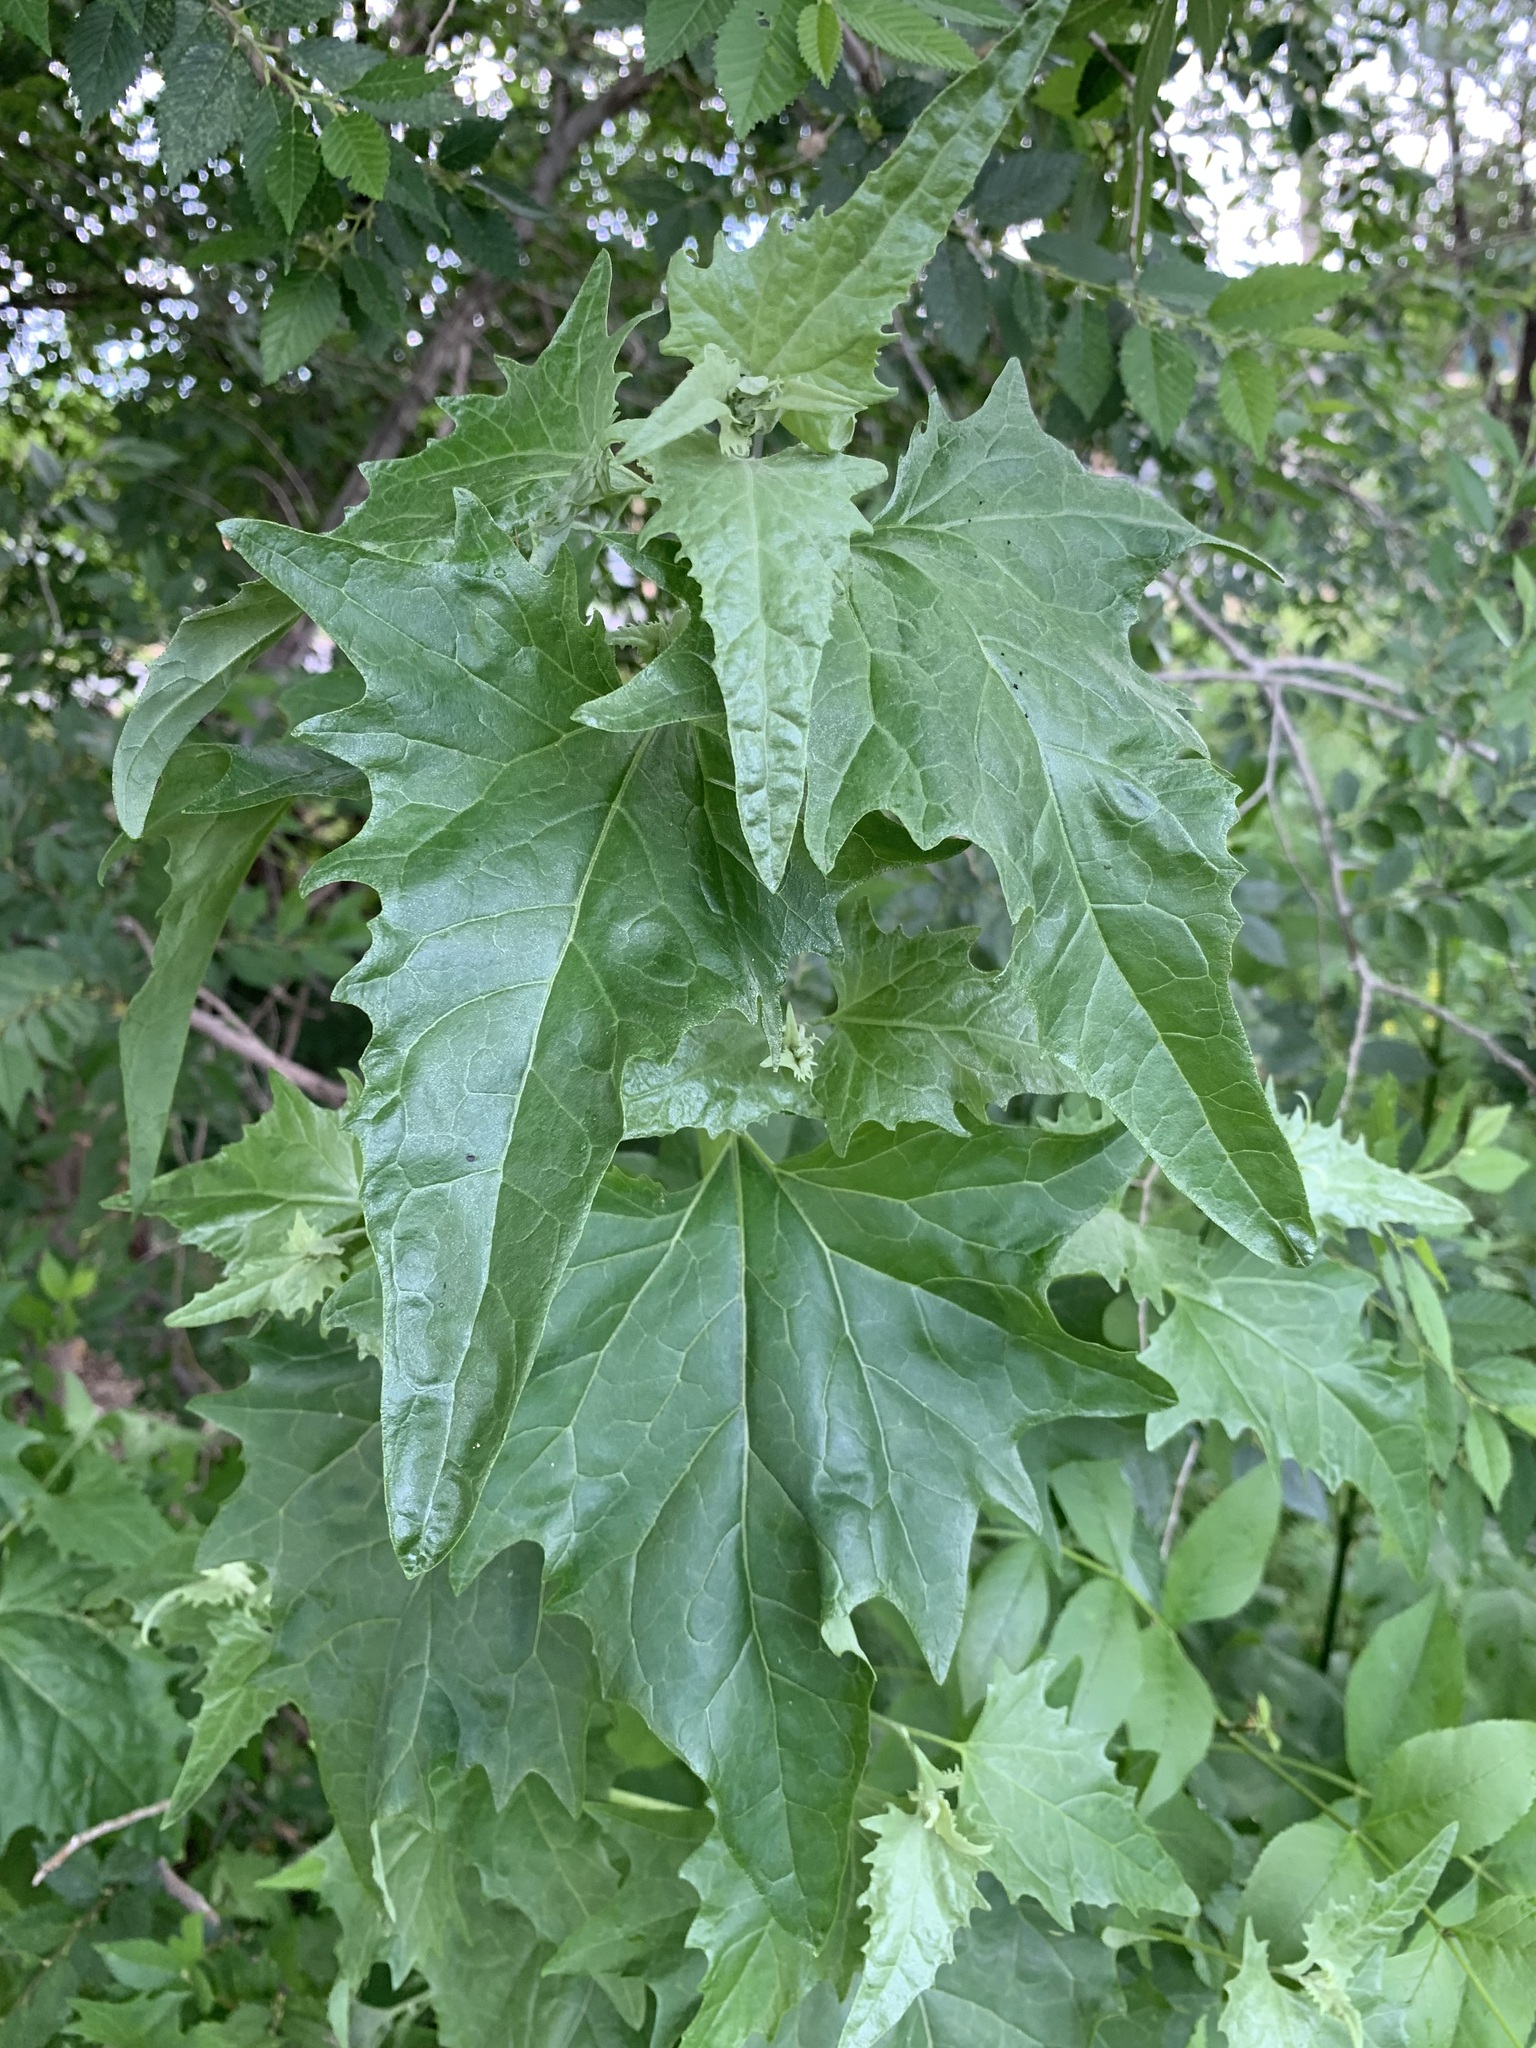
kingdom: Plantae
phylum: Tracheophyta
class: Magnoliopsida
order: Caryophyllales
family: Amaranthaceae
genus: Atriplex
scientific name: Atriplex sagittata
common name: Purple orache
